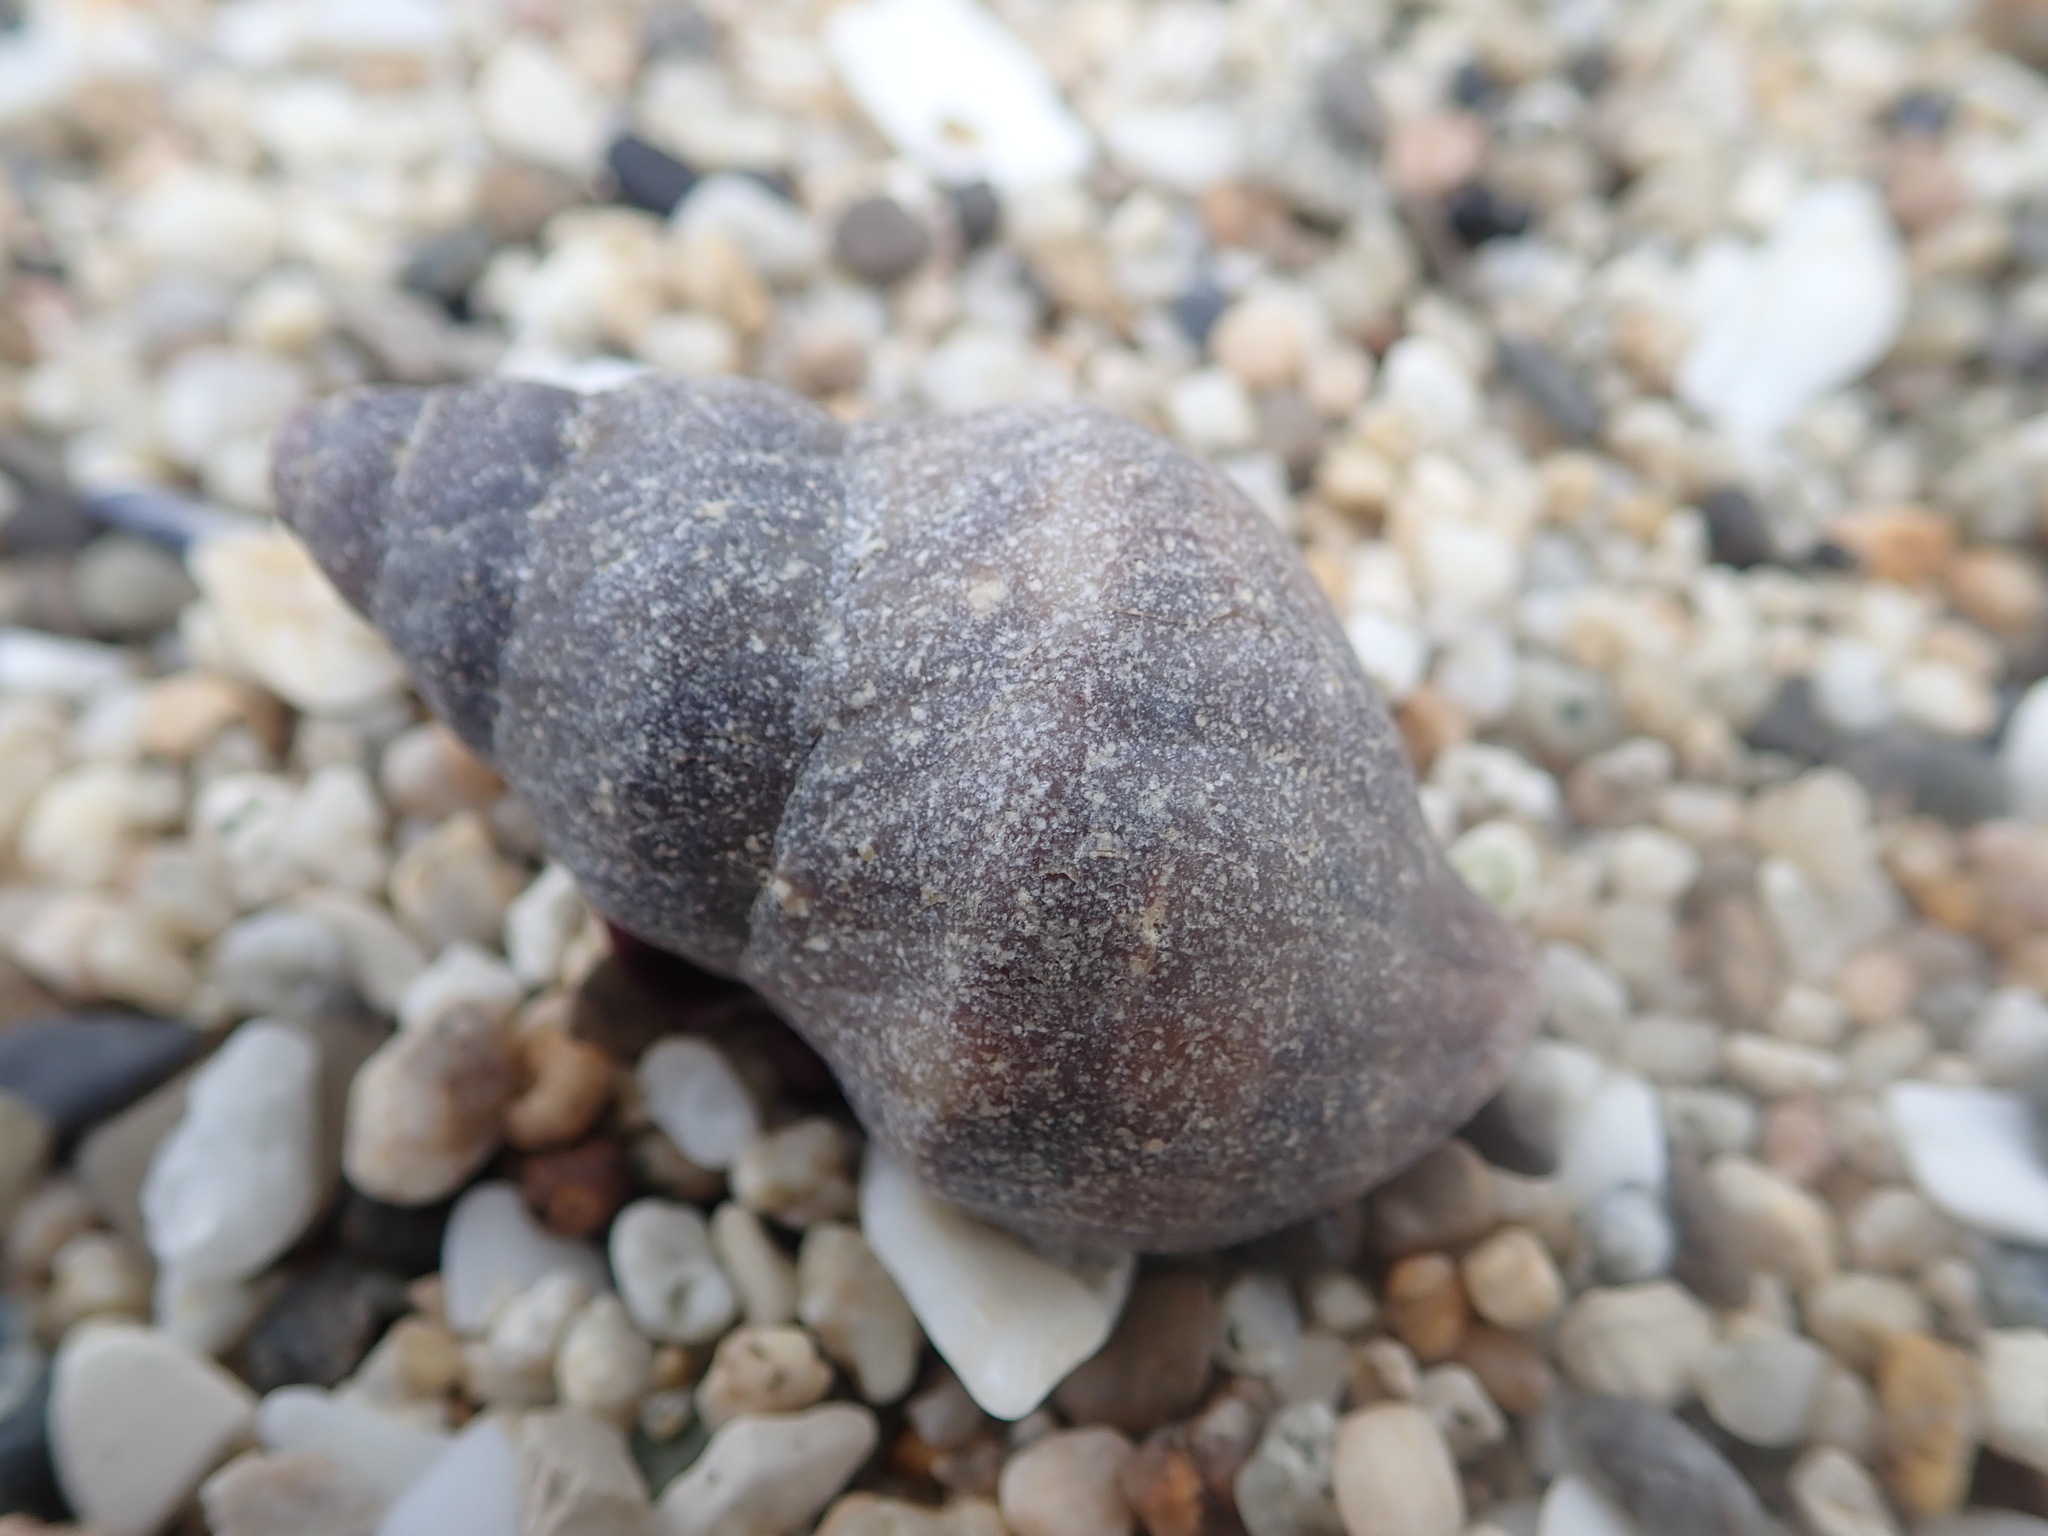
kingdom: Animalia
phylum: Mollusca
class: Gastropoda
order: Neogastropoda
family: Muricidae
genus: Nucella
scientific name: Nucella lamellosa
